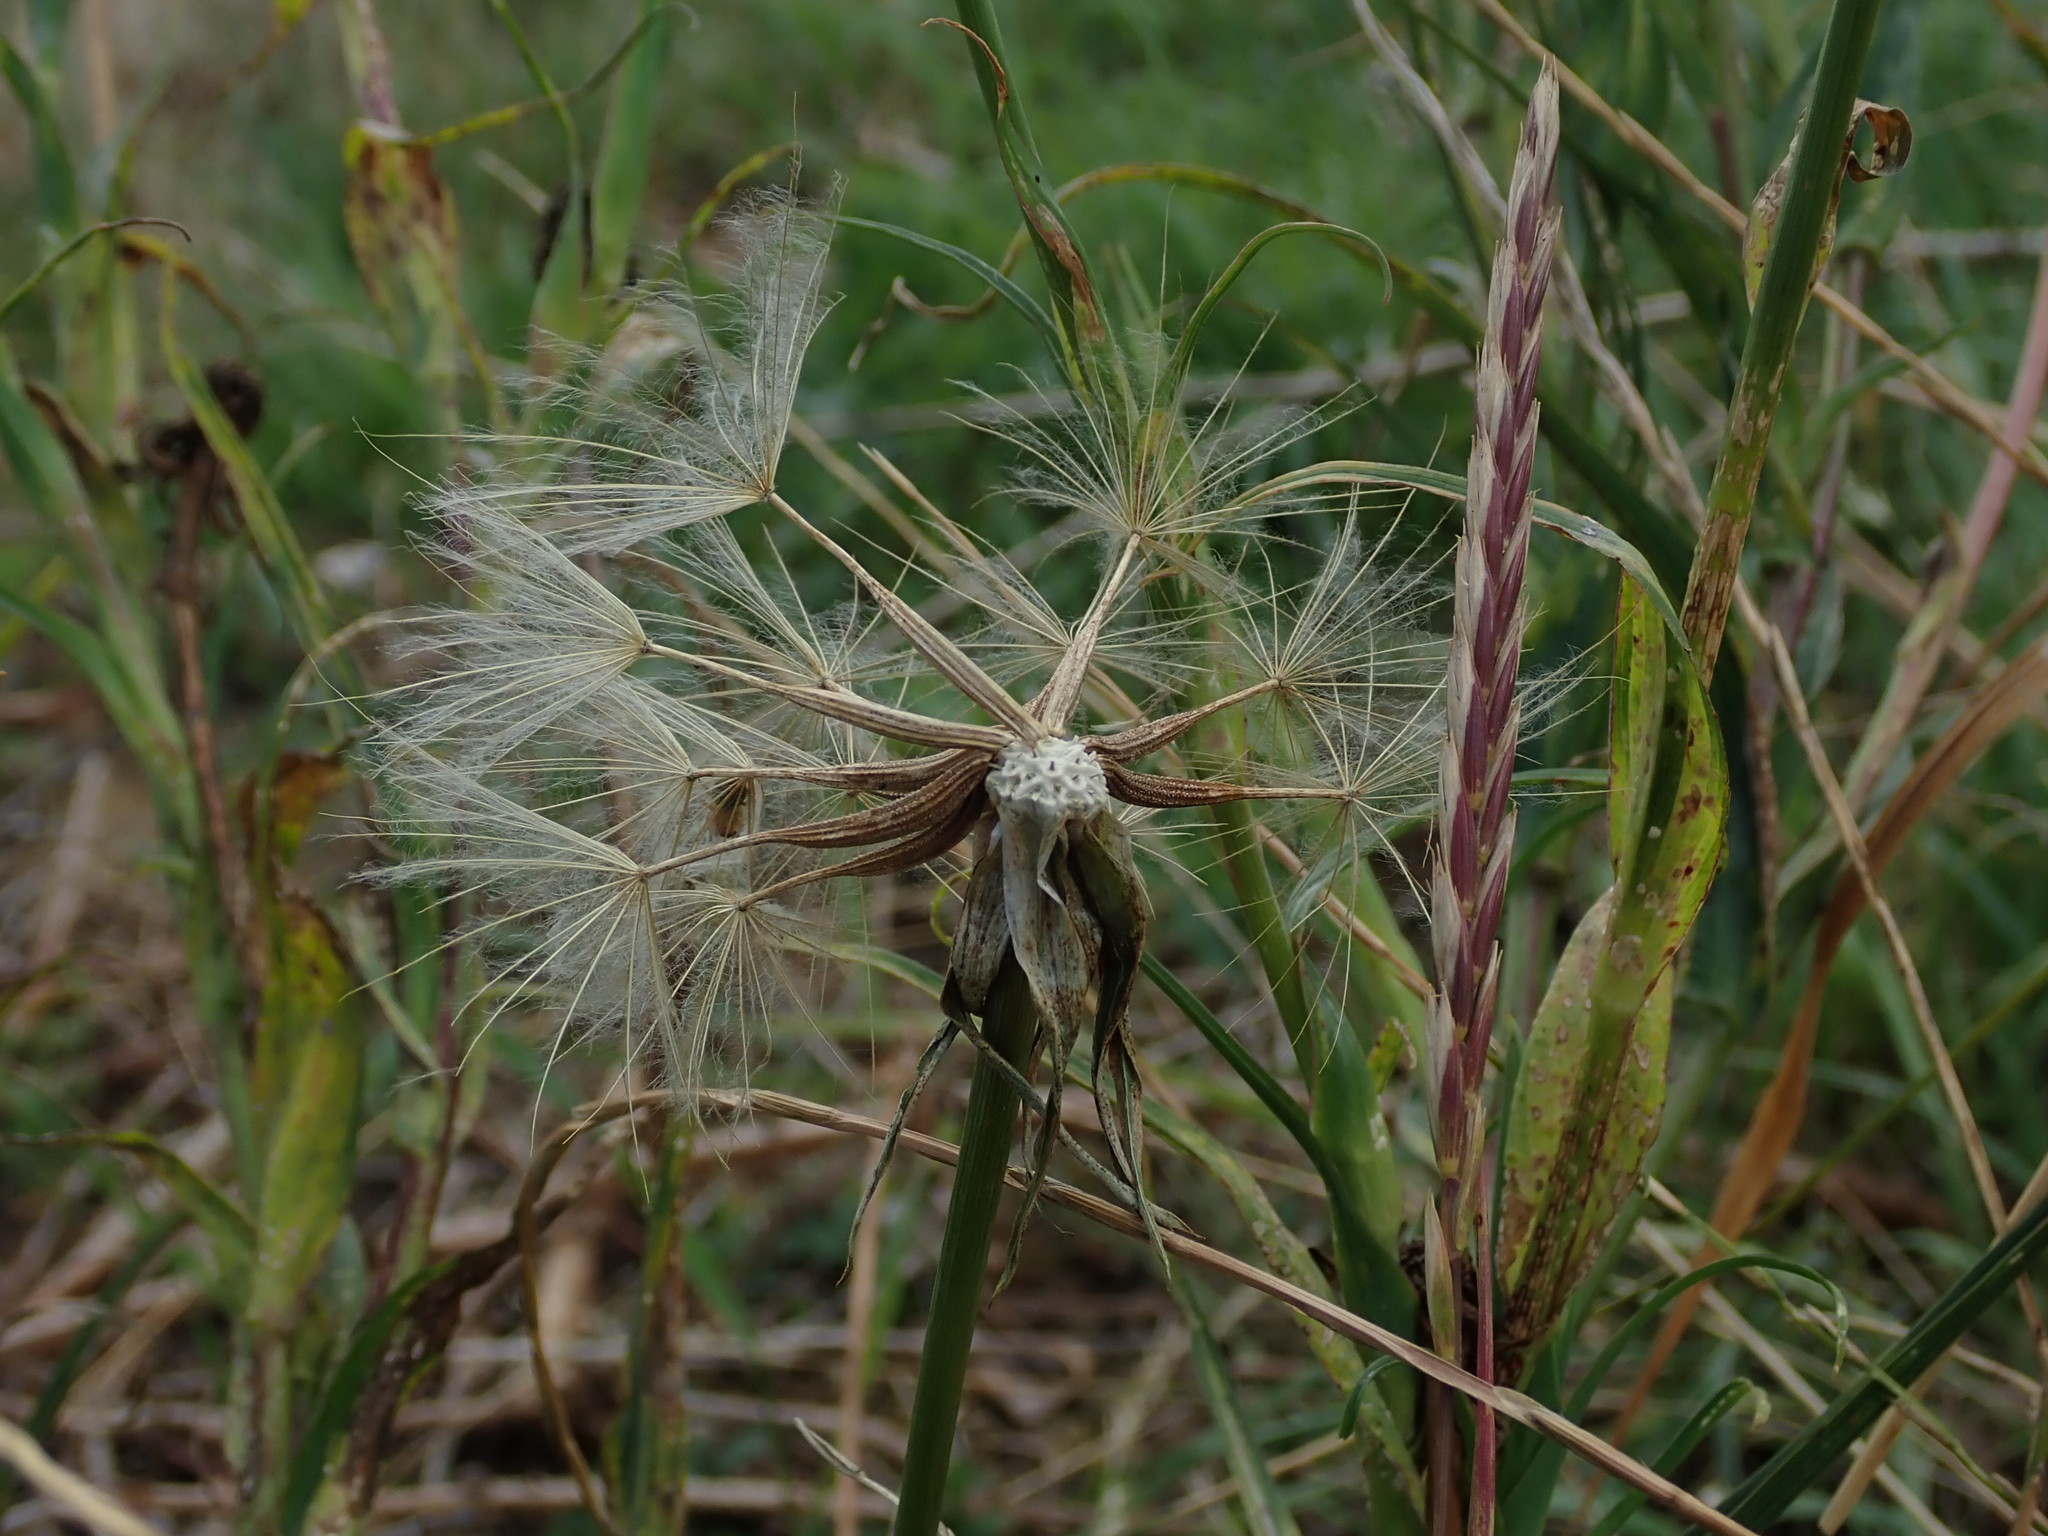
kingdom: Plantae
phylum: Tracheophyta
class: Magnoliopsida
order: Asterales
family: Asteraceae
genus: Tragopogon
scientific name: Tragopogon pratensis
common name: Goat's-beard
